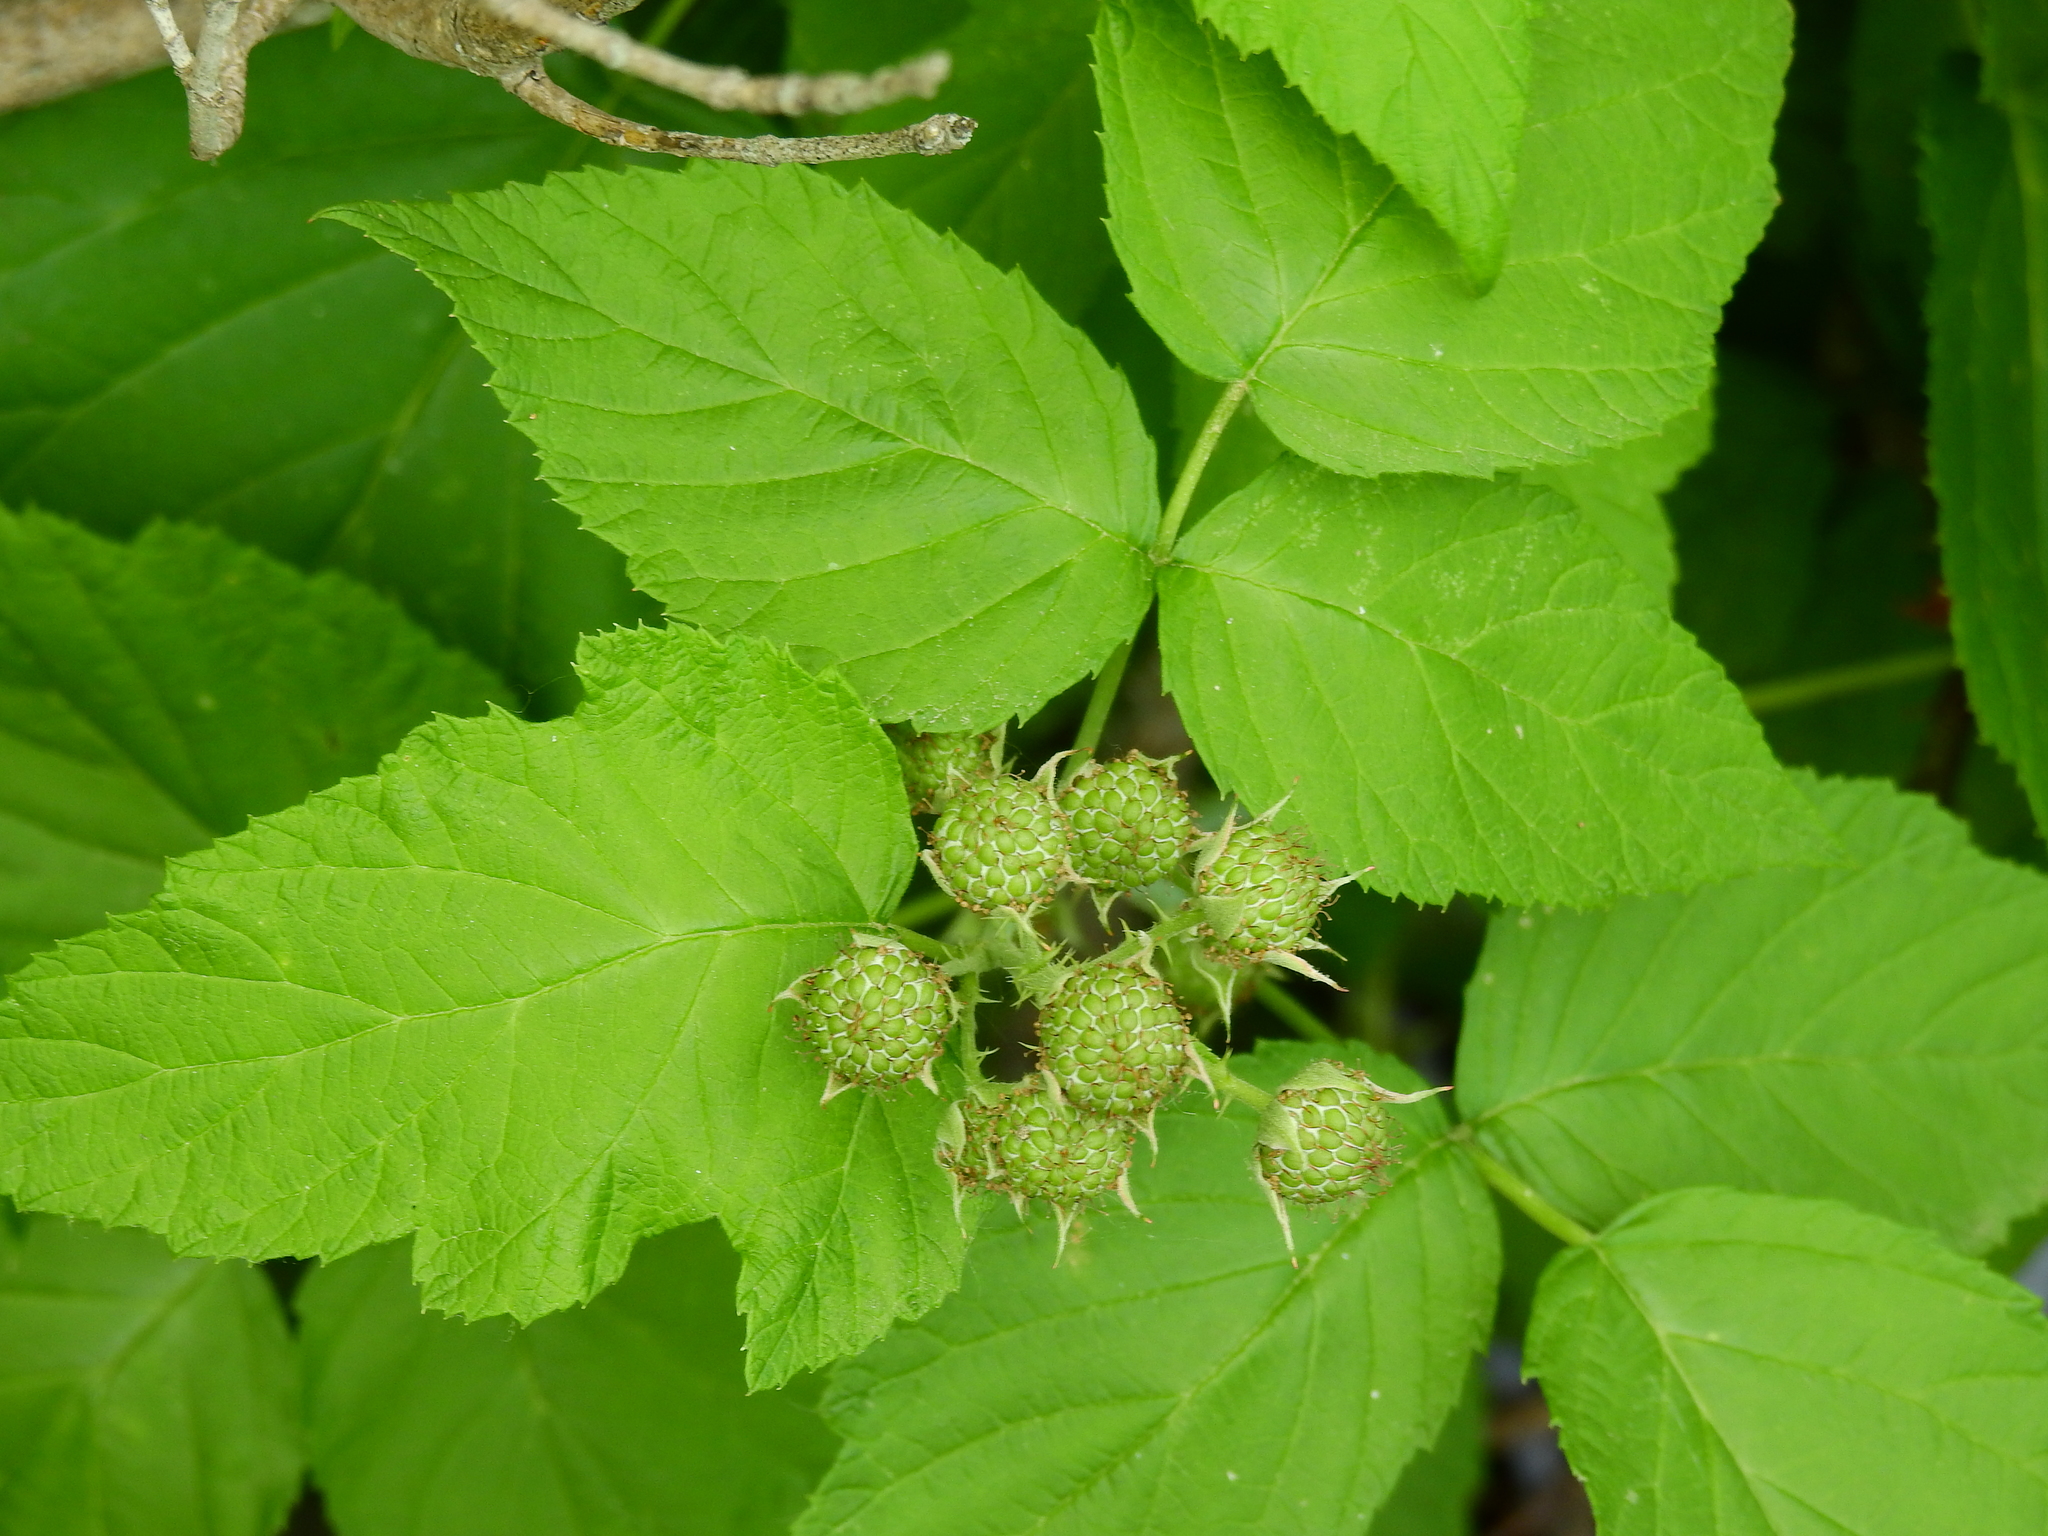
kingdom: Plantae
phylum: Tracheophyta
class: Magnoliopsida
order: Rosales
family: Rosaceae
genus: Rubus
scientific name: Rubus allegheniensis
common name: Allegheny blackberry
